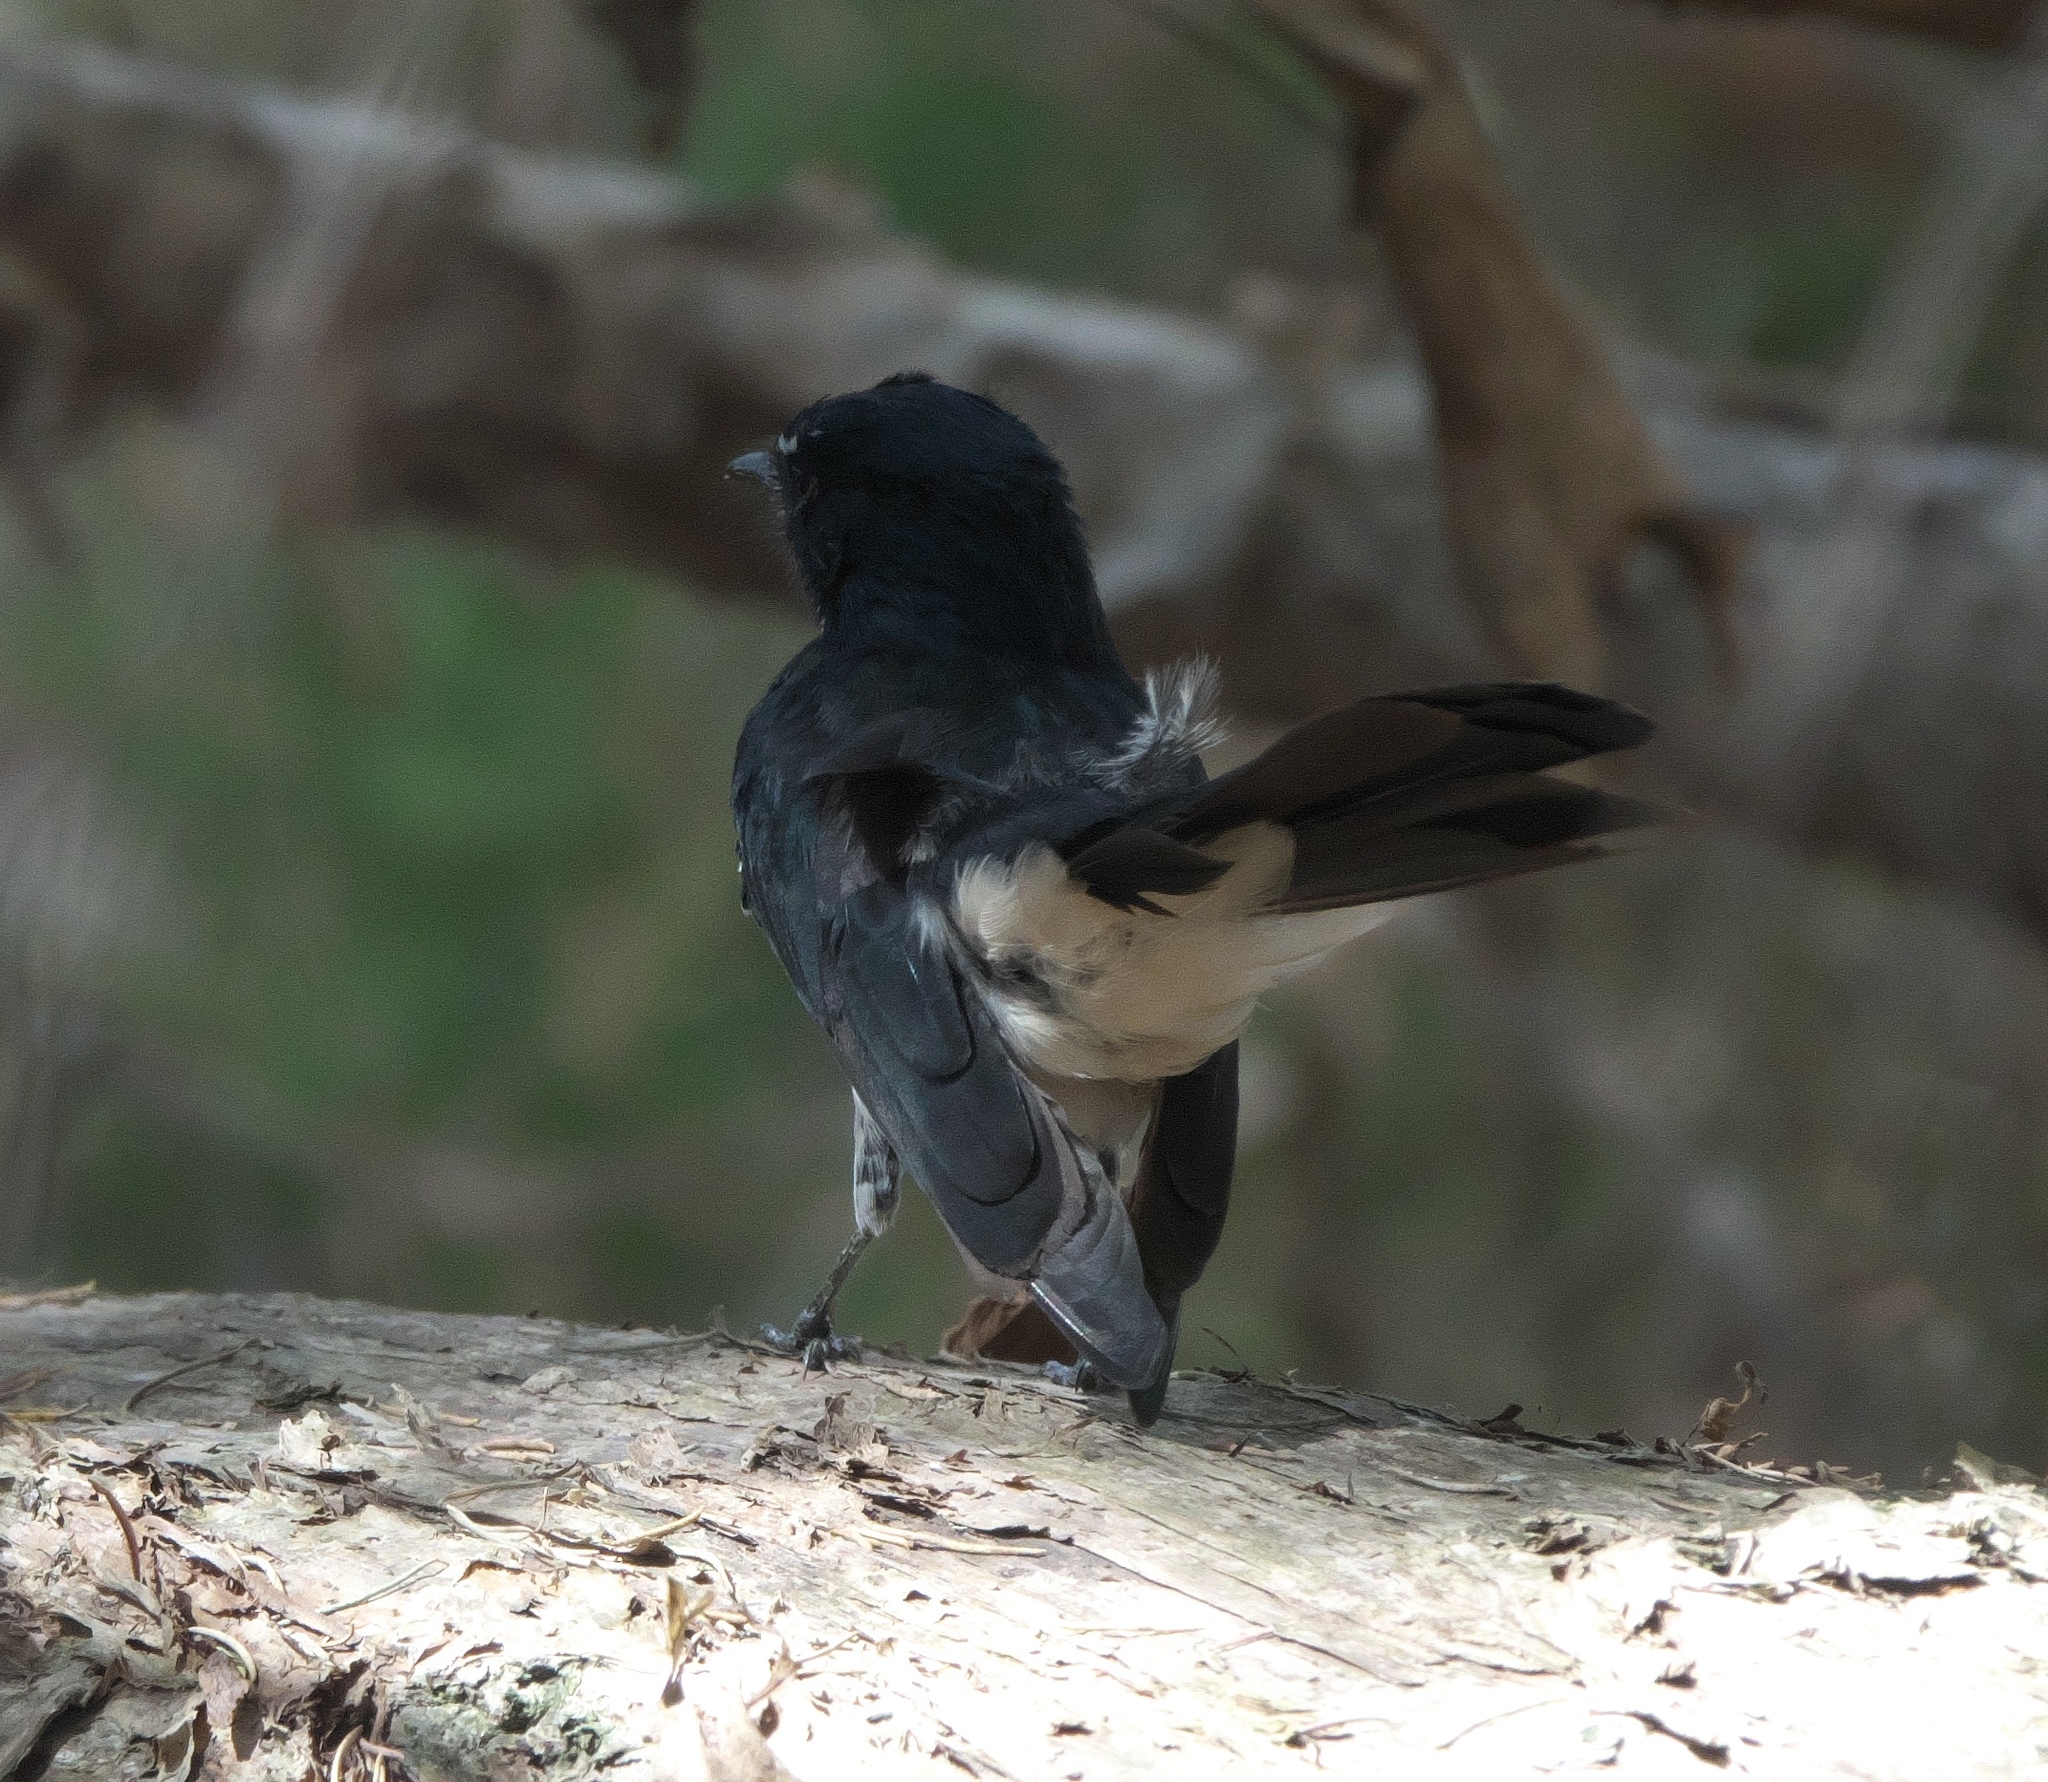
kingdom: Animalia
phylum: Chordata
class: Aves
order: Passeriformes
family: Rhipiduridae
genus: Rhipidura
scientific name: Rhipidura leucophrys
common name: Willie wagtail
